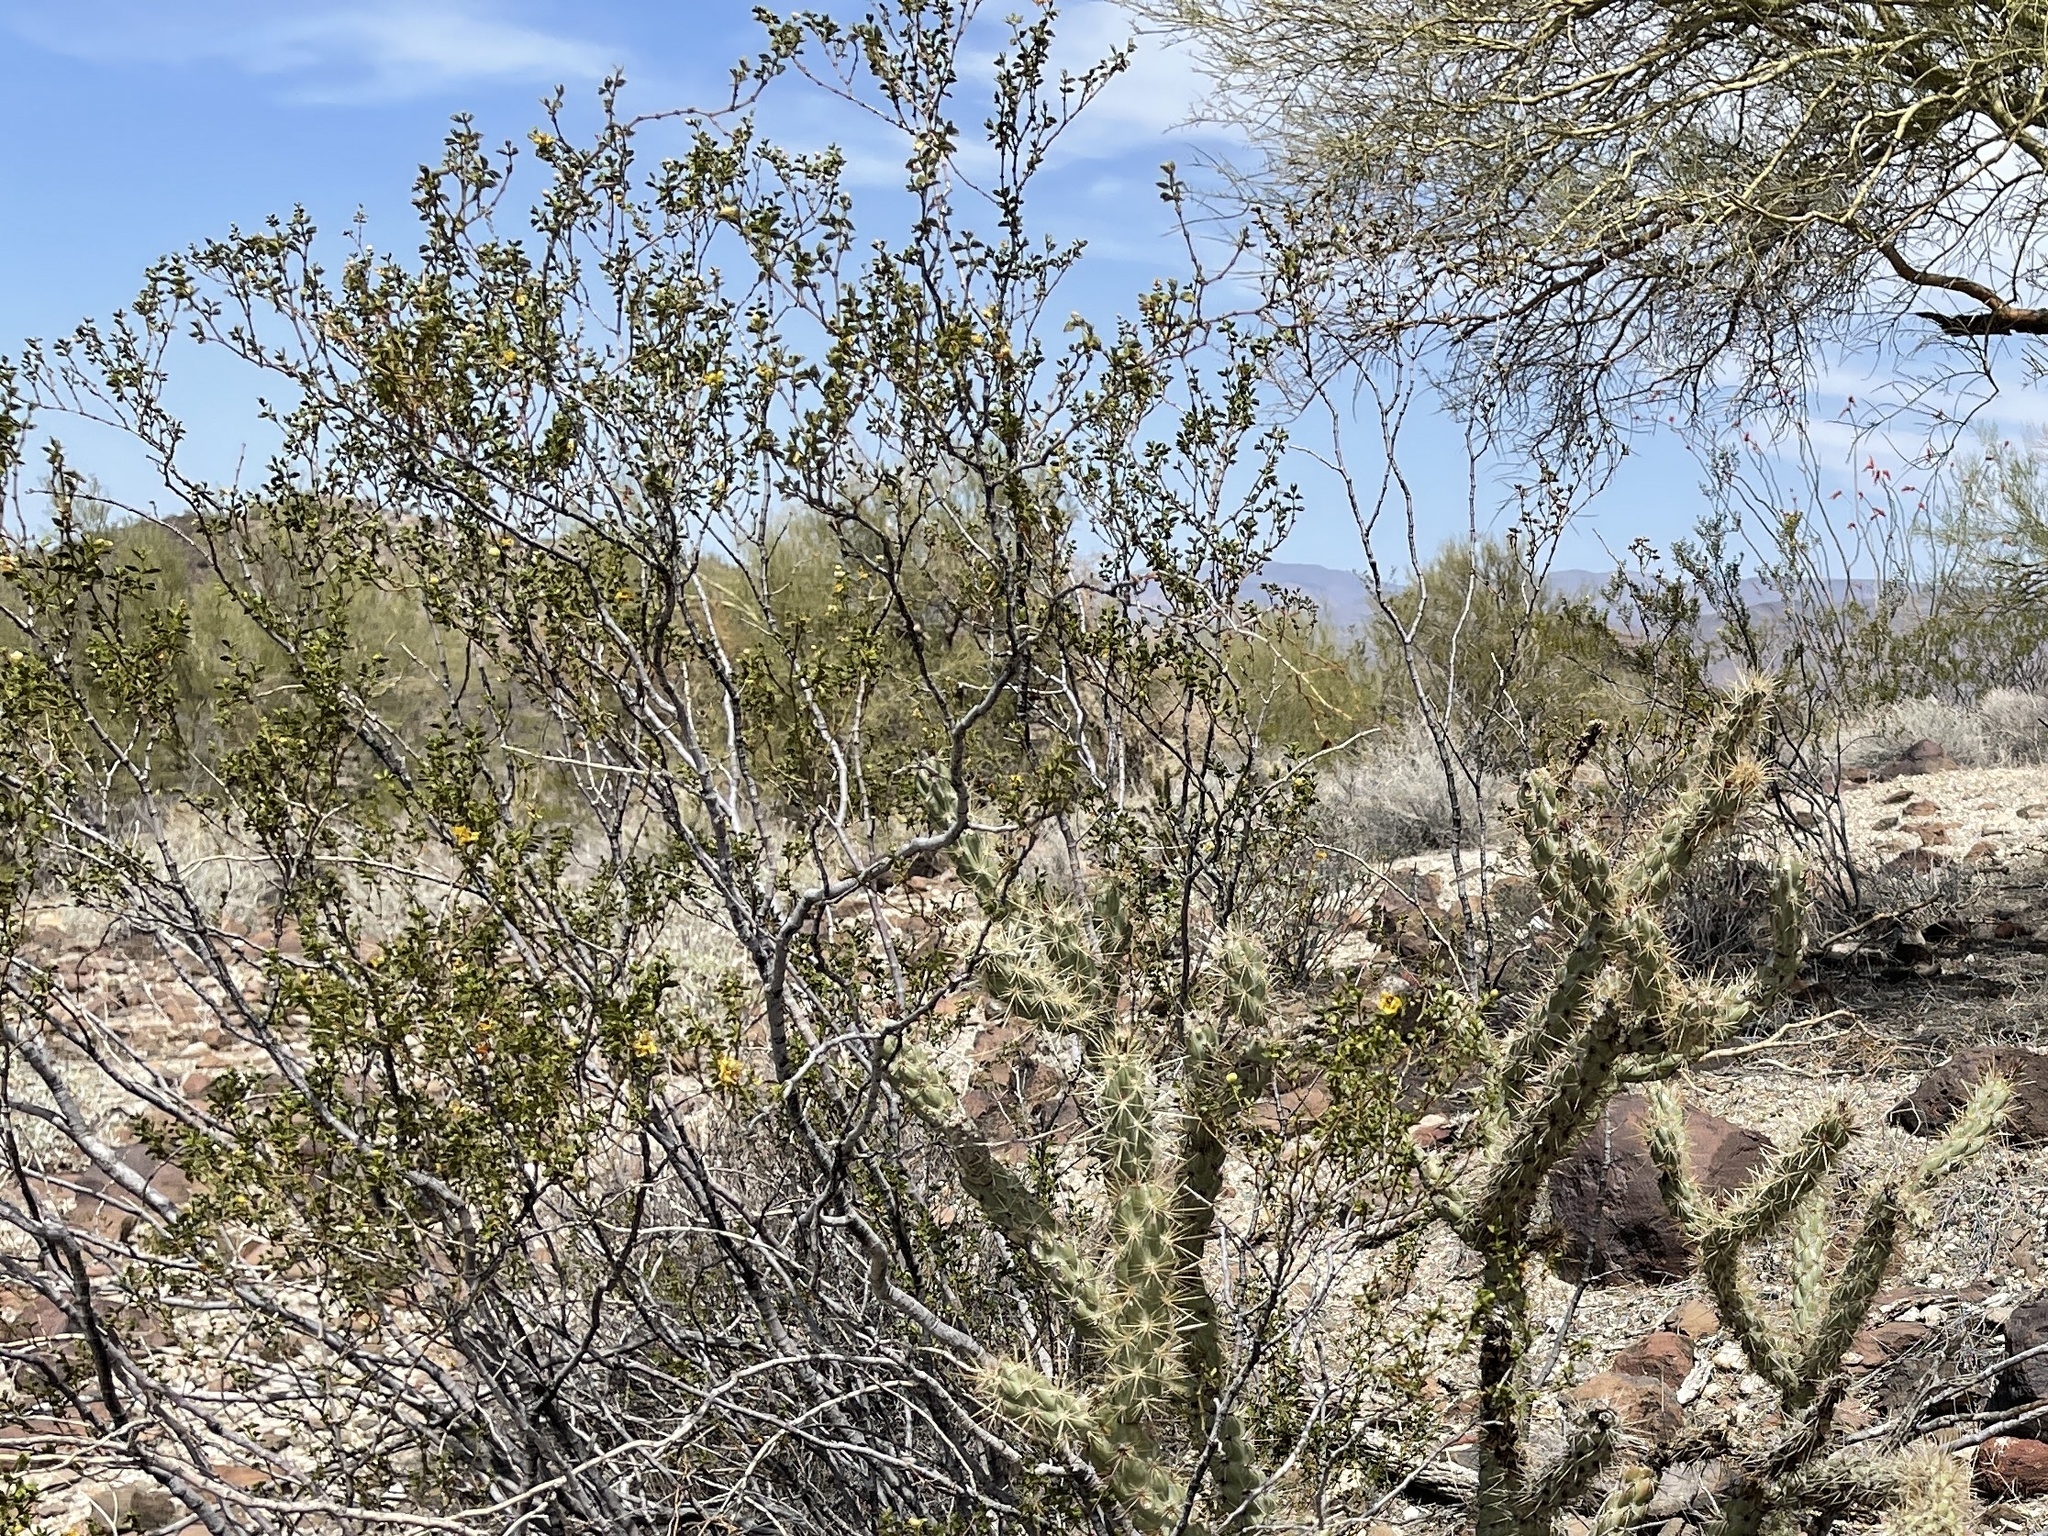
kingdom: Plantae
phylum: Tracheophyta
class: Magnoliopsida
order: Zygophyllales
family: Zygophyllaceae
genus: Larrea
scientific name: Larrea tridentata
